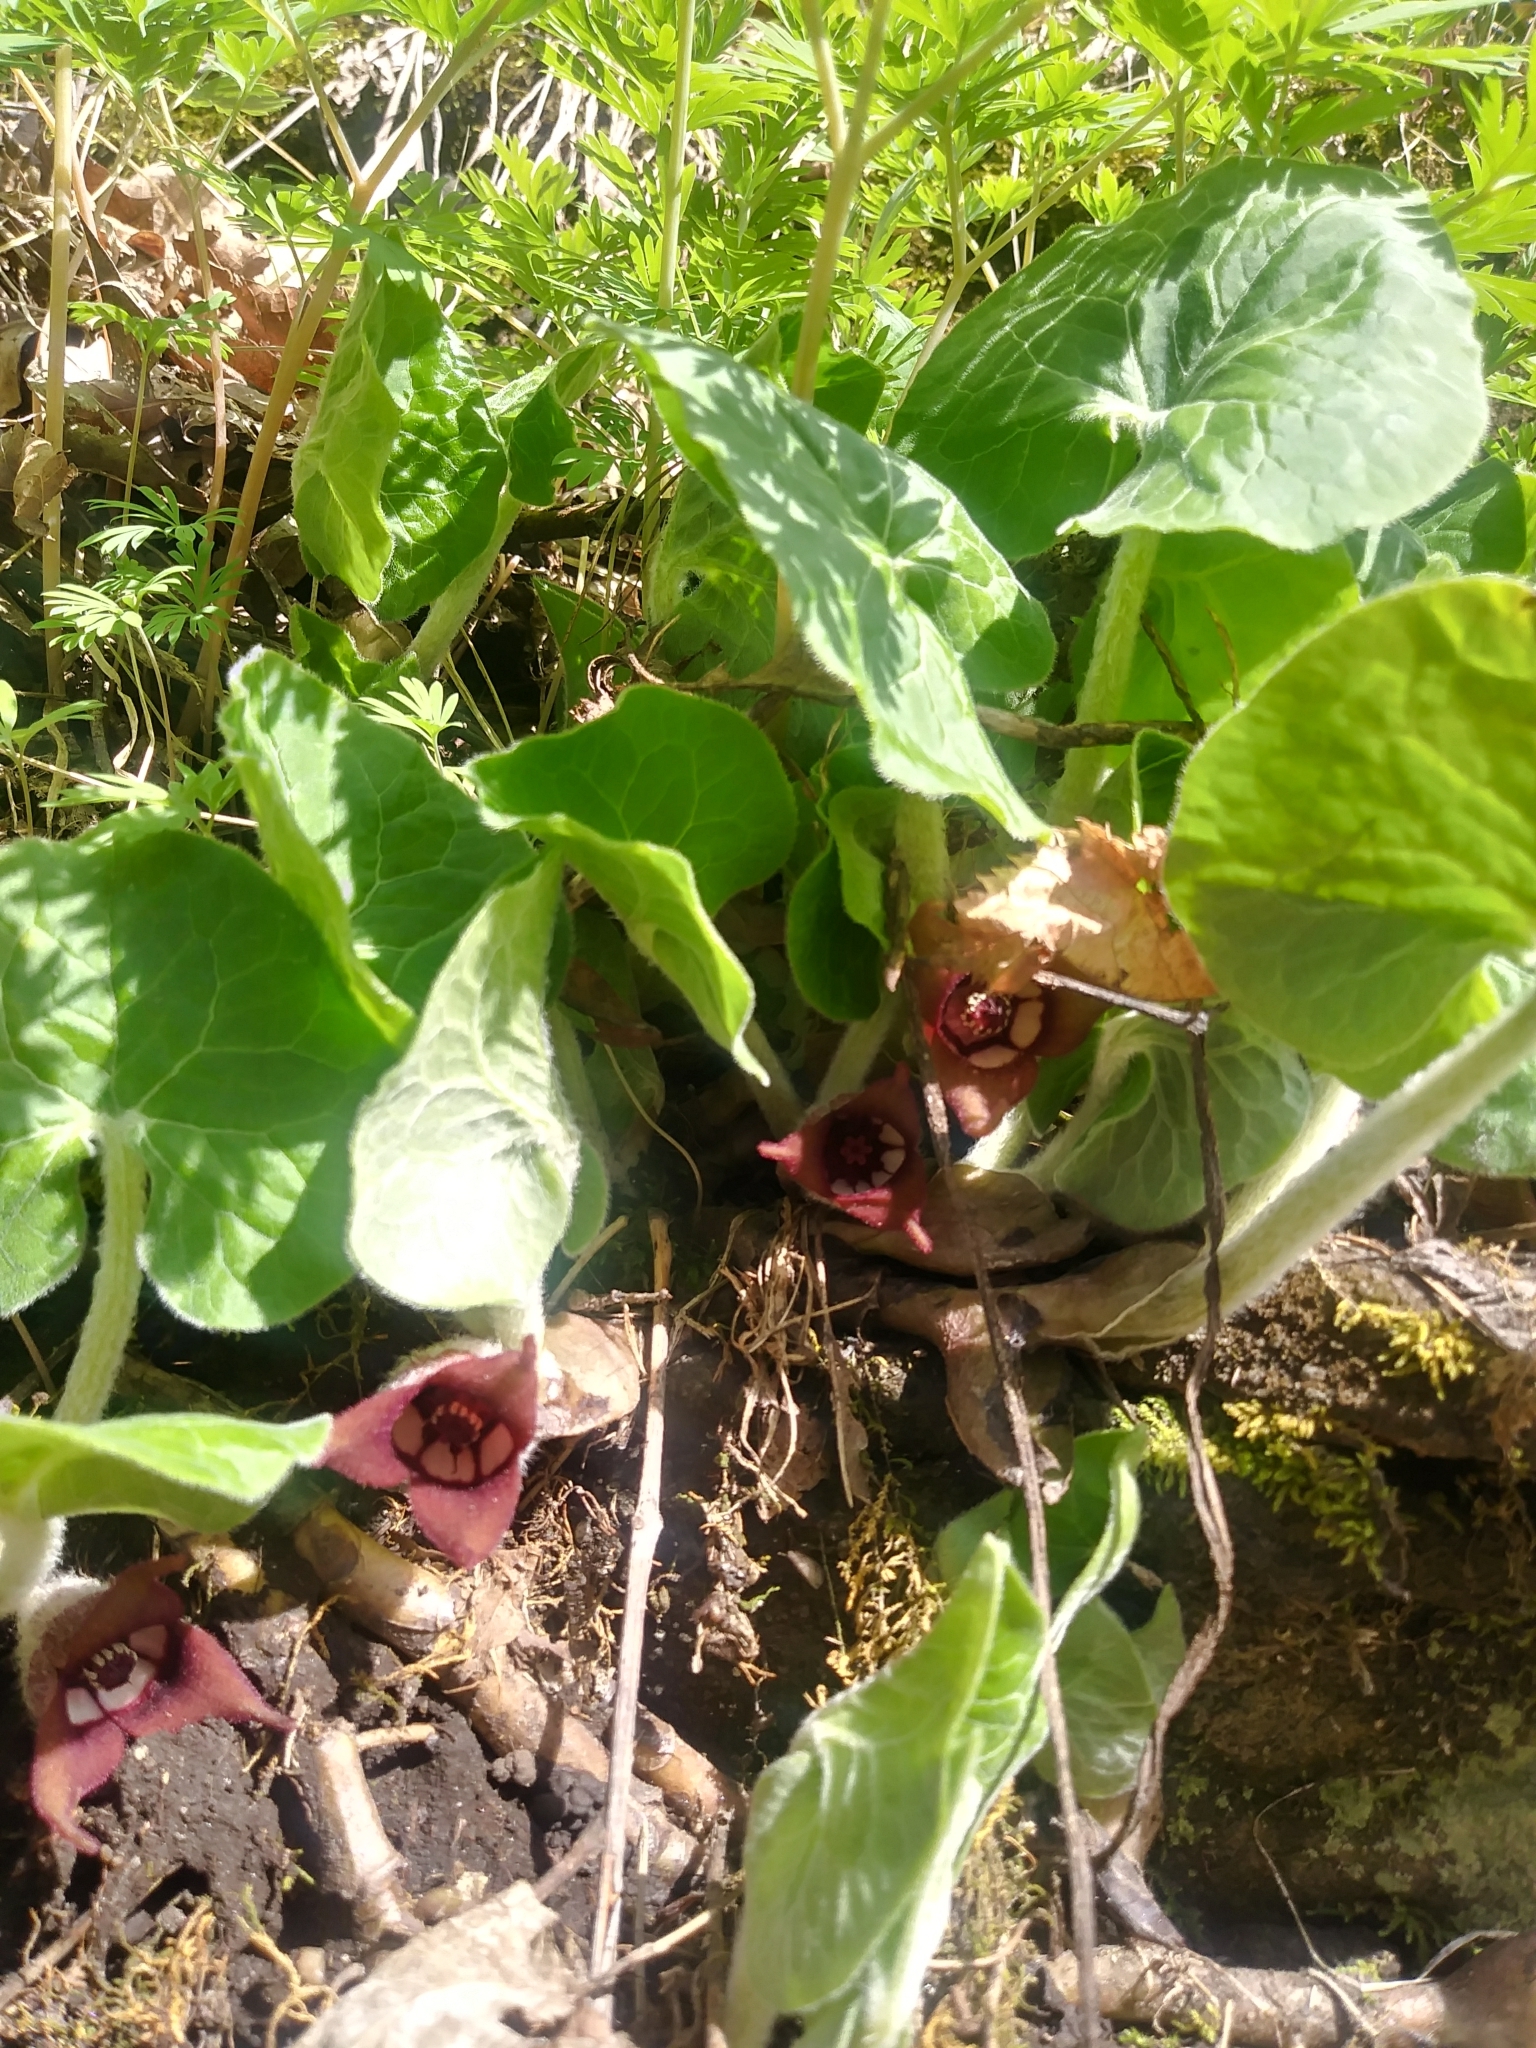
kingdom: Plantae
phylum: Tracheophyta
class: Magnoliopsida
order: Piperales
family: Aristolochiaceae
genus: Asarum
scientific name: Asarum canadense
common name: Wild ginger
